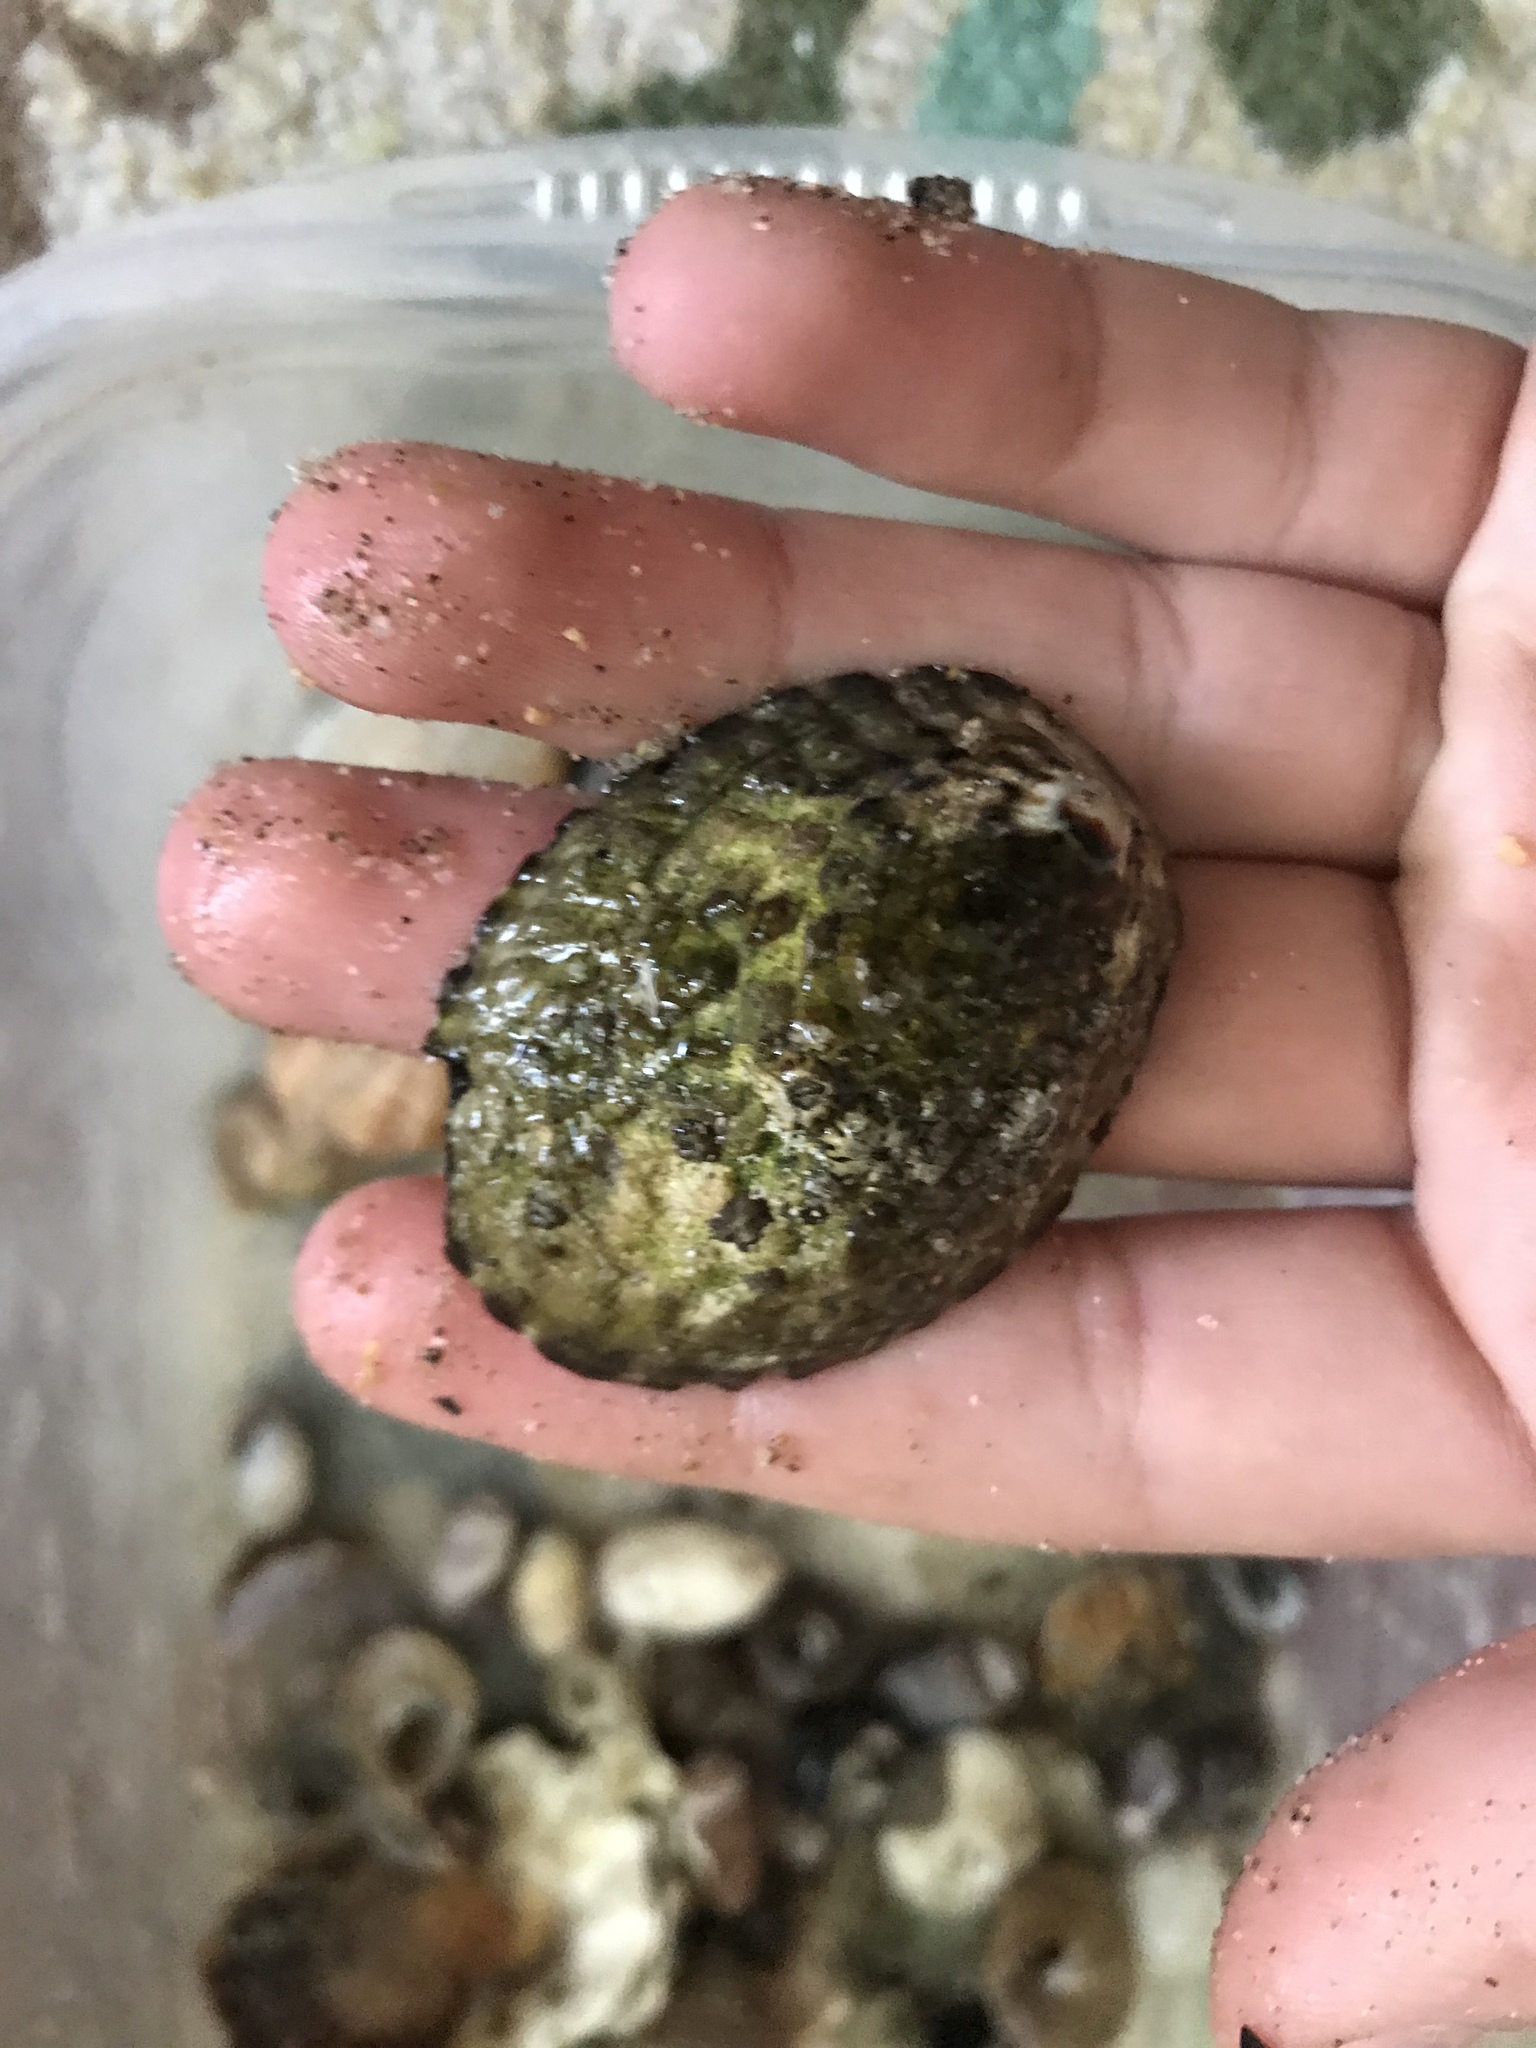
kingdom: Animalia
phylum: Mollusca
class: Gastropoda
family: Lottiidae
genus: Lottia
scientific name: Lottia gigantea
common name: Owl limpet
